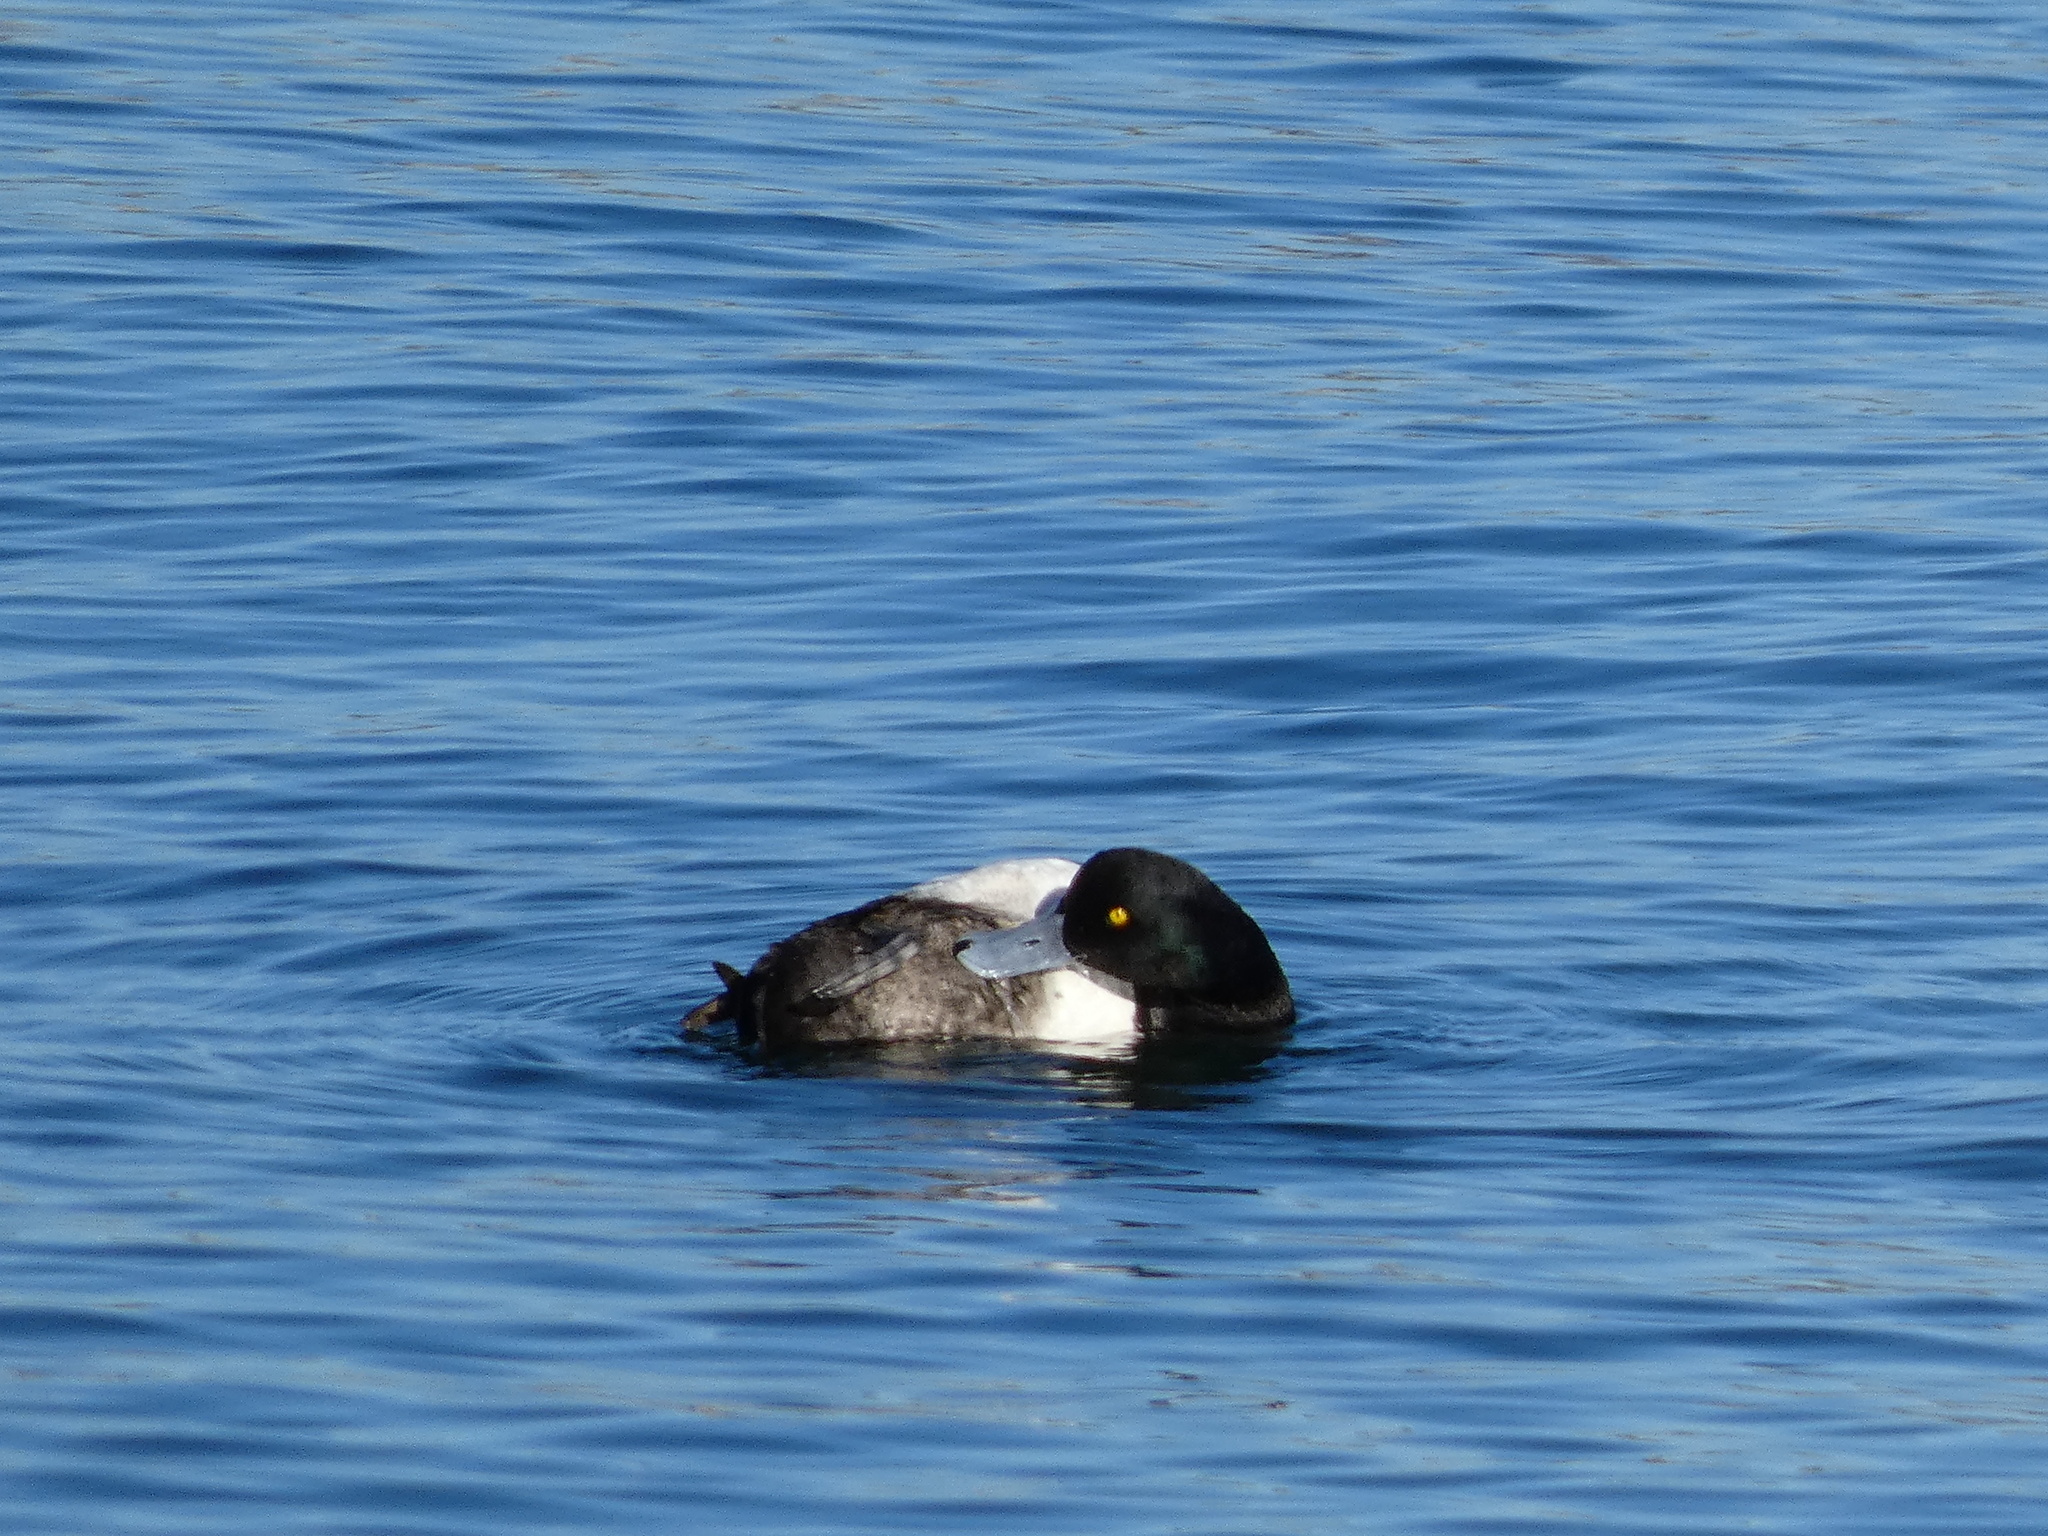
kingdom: Animalia
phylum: Chordata
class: Aves
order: Anseriformes
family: Anatidae
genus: Aythya
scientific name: Aythya affinis
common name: Lesser scaup
